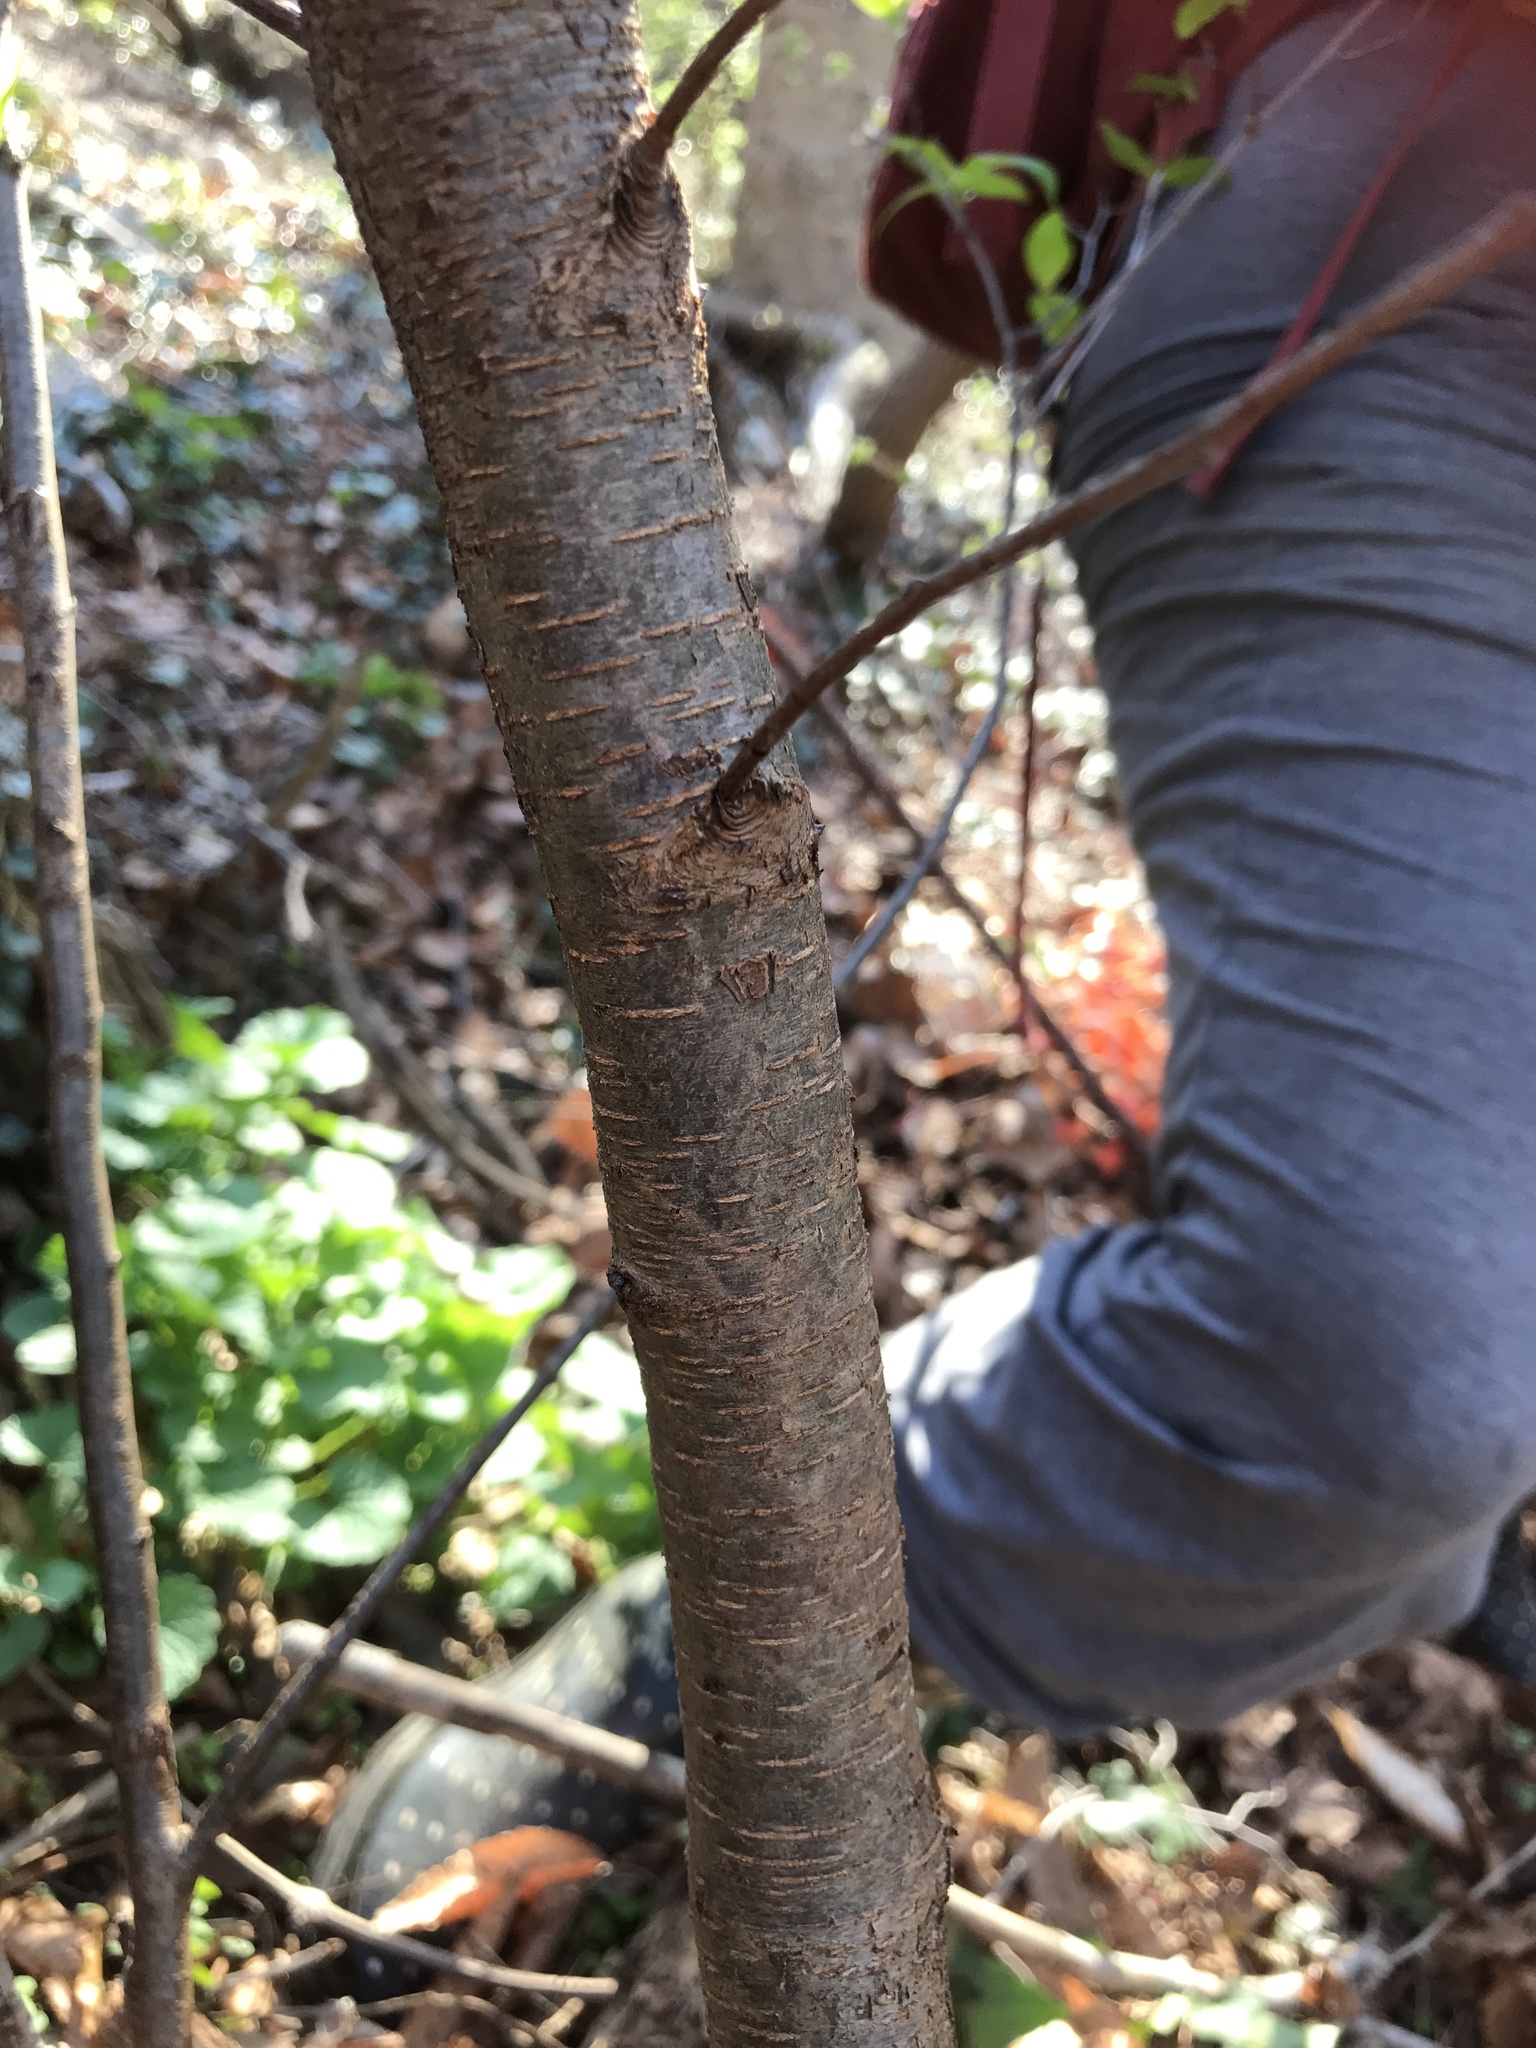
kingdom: Plantae
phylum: Tracheophyta
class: Magnoliopsida
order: Rosales
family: Rosaceae
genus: Prunus
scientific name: Prunus serotina
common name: Black cherry
